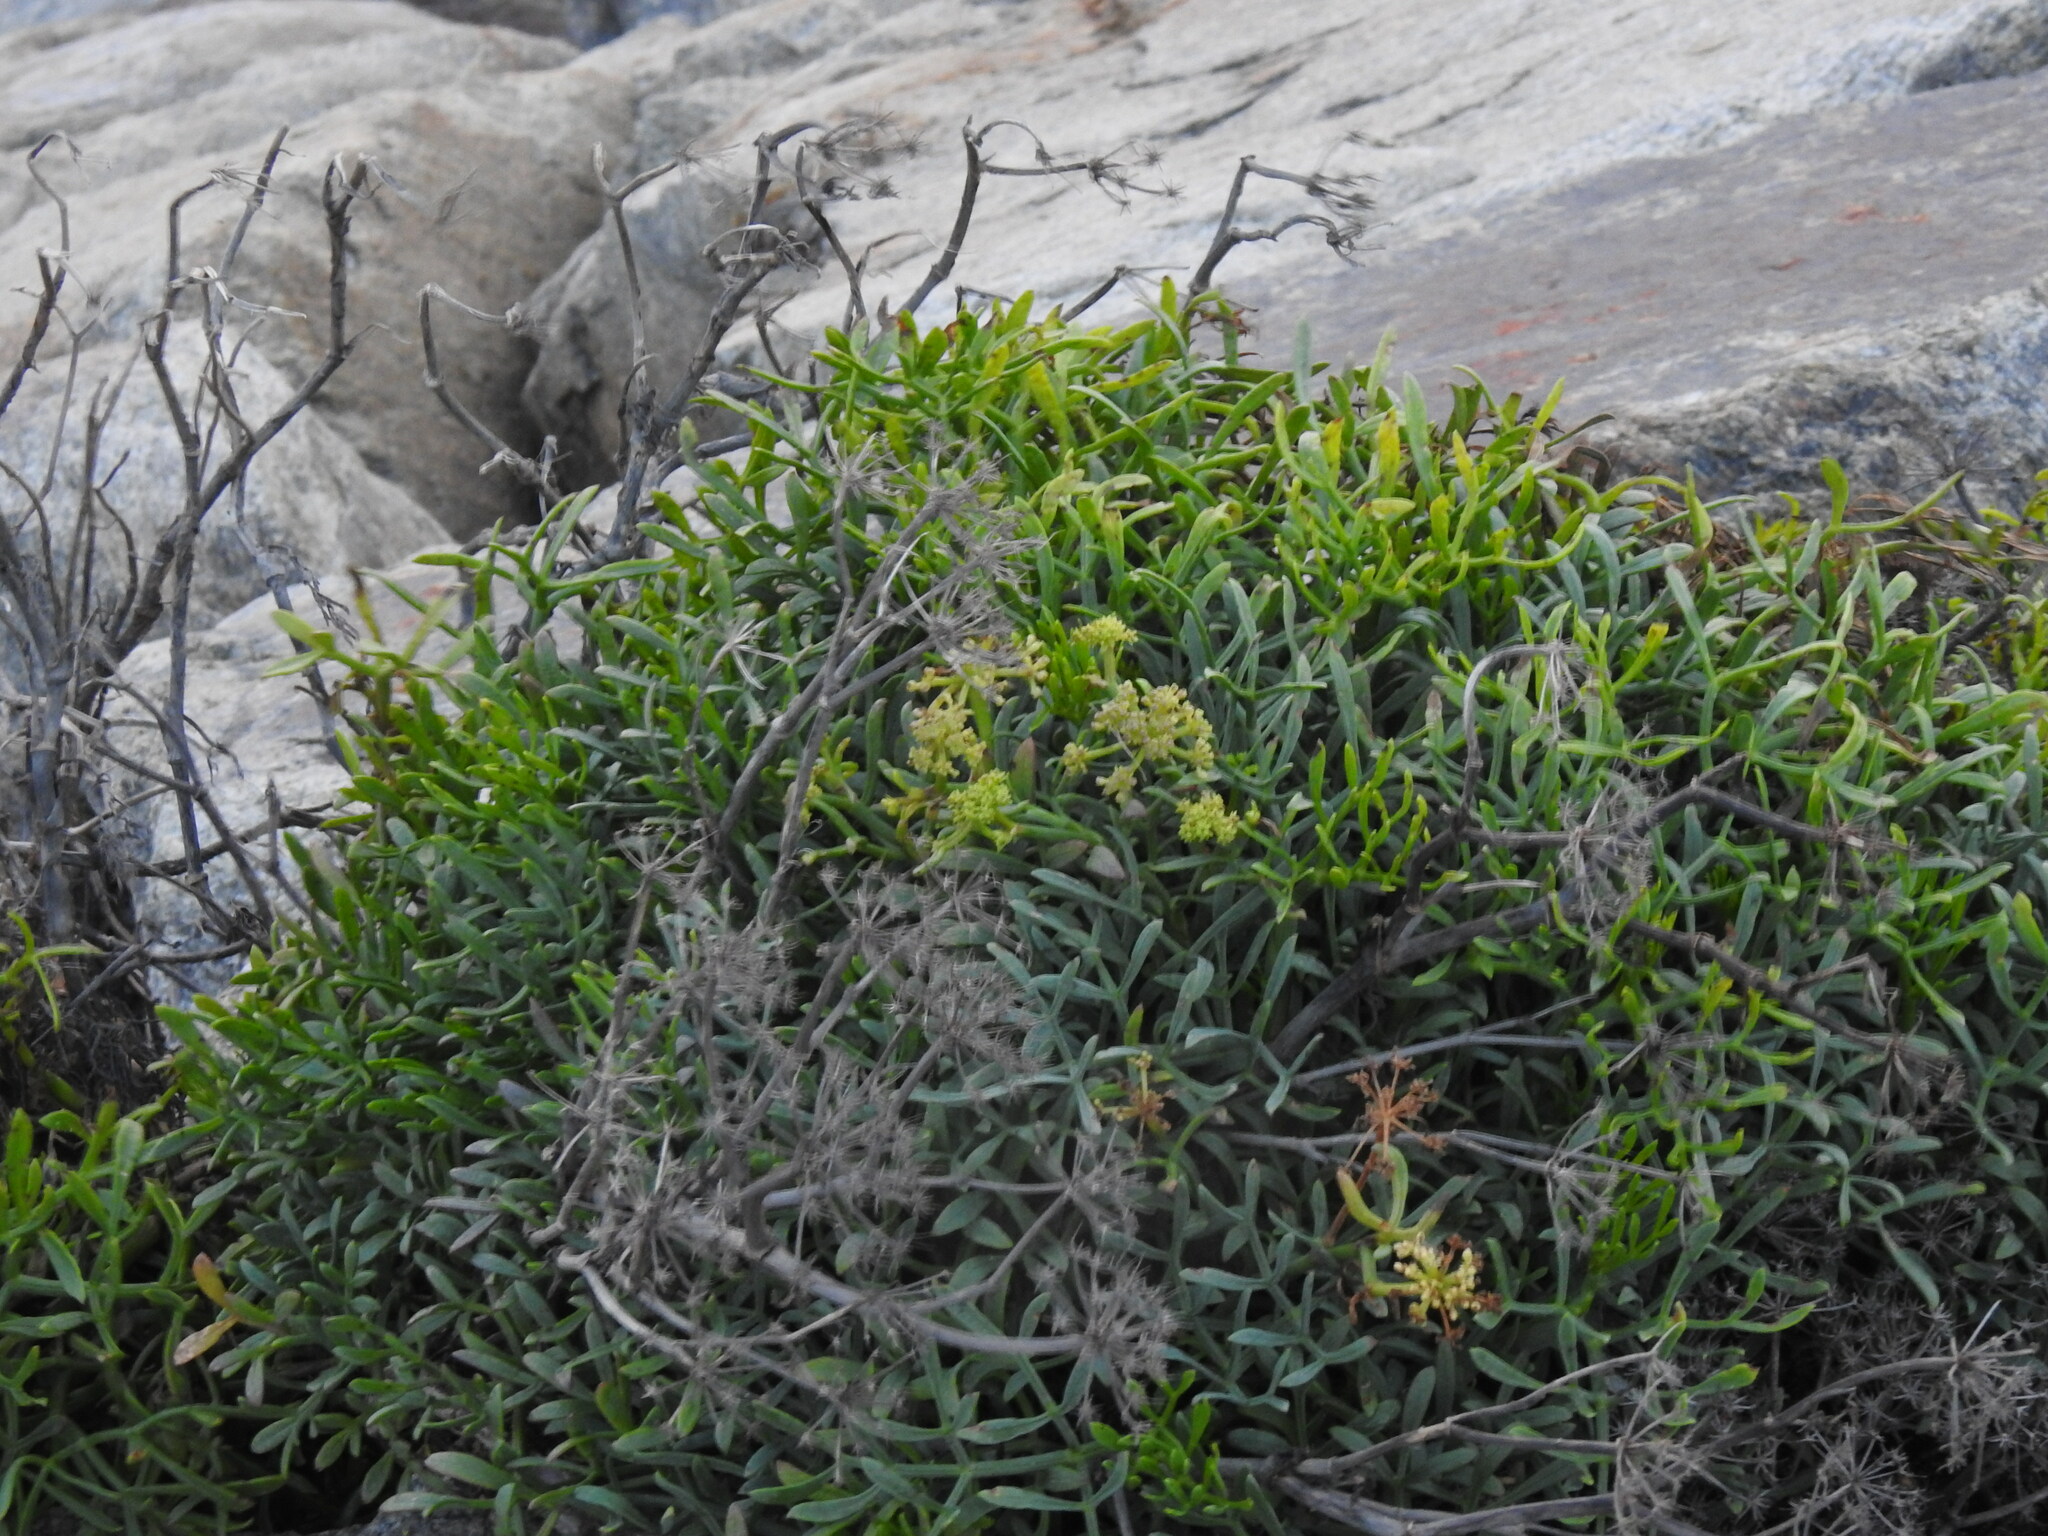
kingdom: Plantae
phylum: Tracheophyta
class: Magnoliopsida
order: Apiales
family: Apiaceae
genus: Crithmum
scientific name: Crithmum maritimum
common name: Rock samphire
